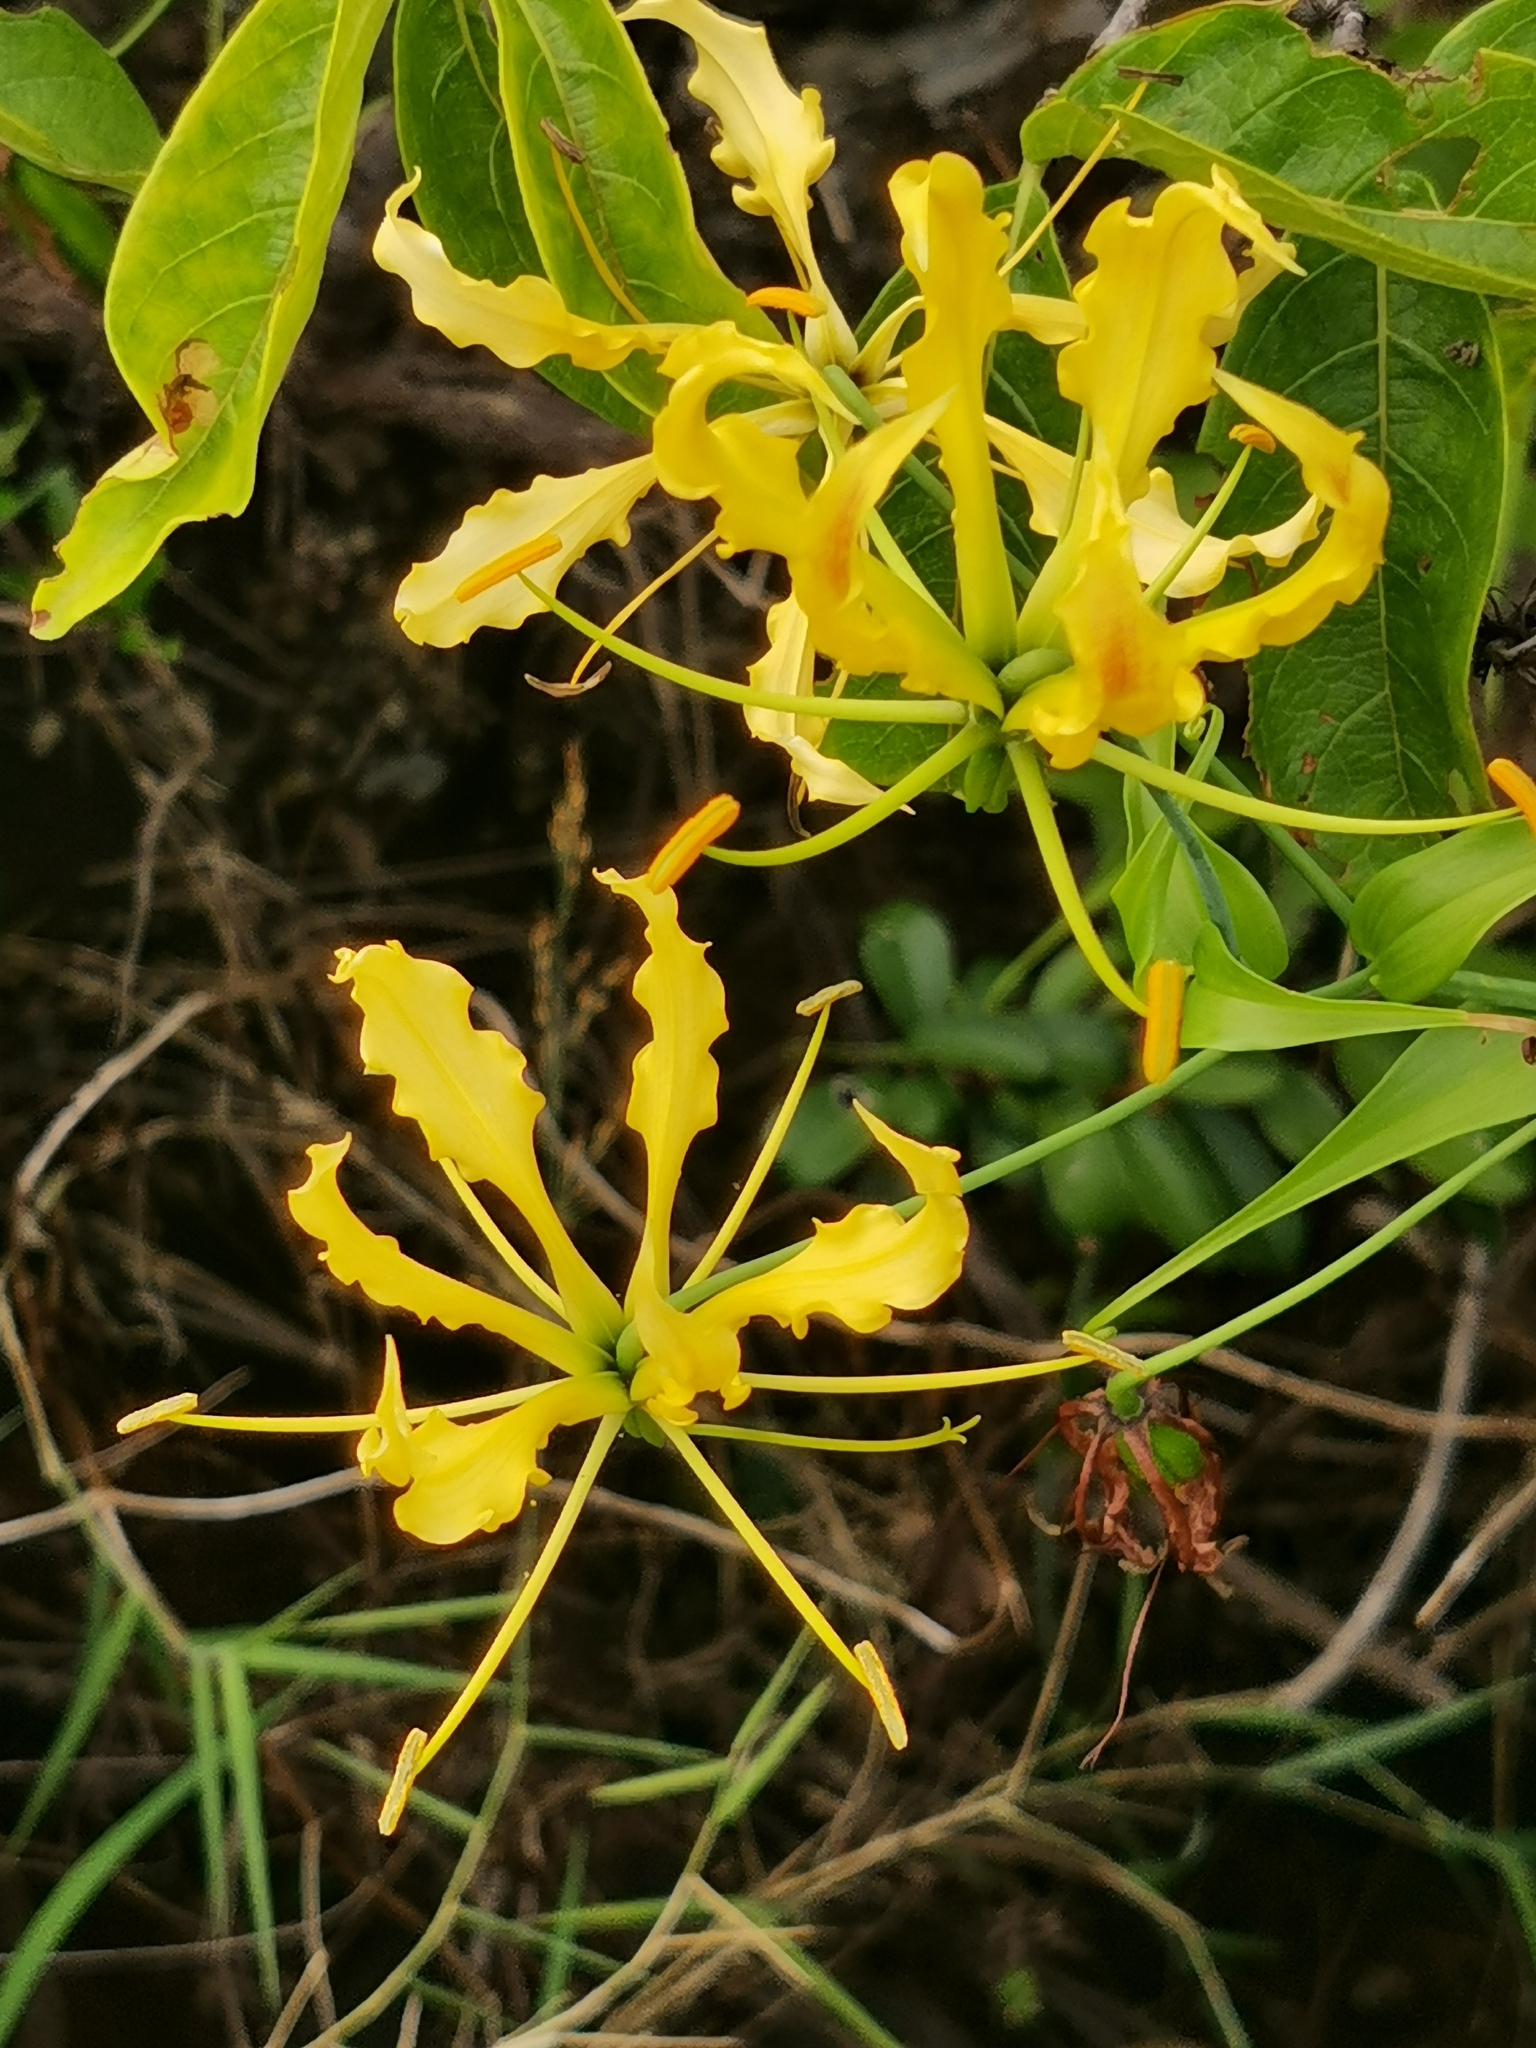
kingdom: Plantae
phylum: Tracheophyta
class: Liliopsida
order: Liliales
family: Colchicaceae
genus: Gloriosa
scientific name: Gloriosa superba
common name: Flame lily
